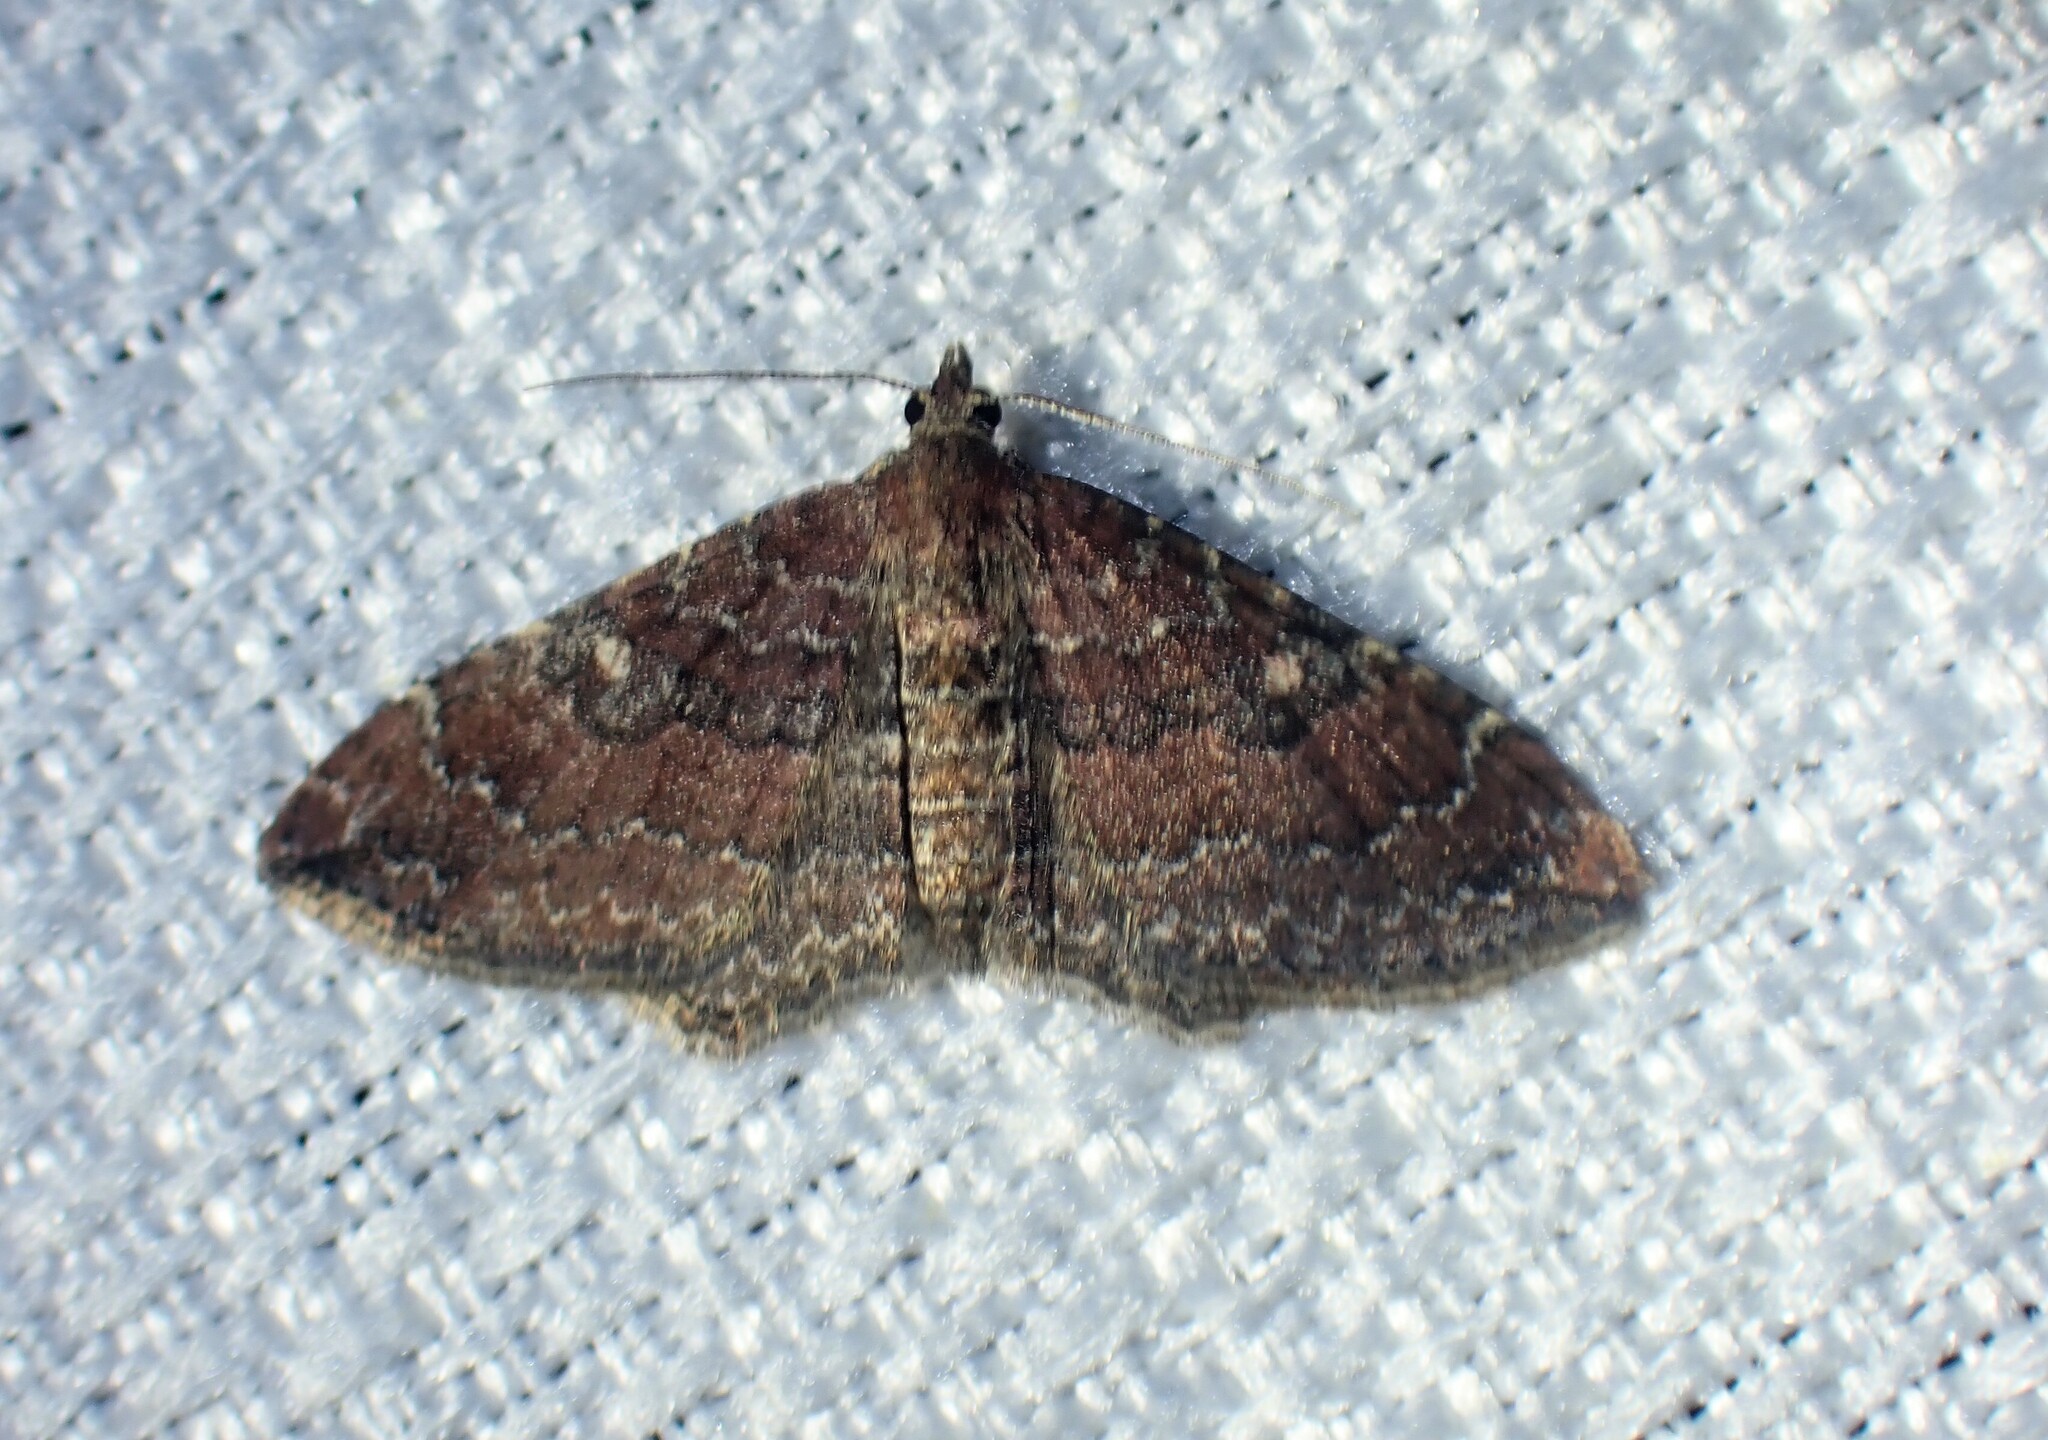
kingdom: Animalia
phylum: Arthropoda
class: Insecta
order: Lepidoptera
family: Geometridae
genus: Orthonama
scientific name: Orthonama obstipata
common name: The gem
